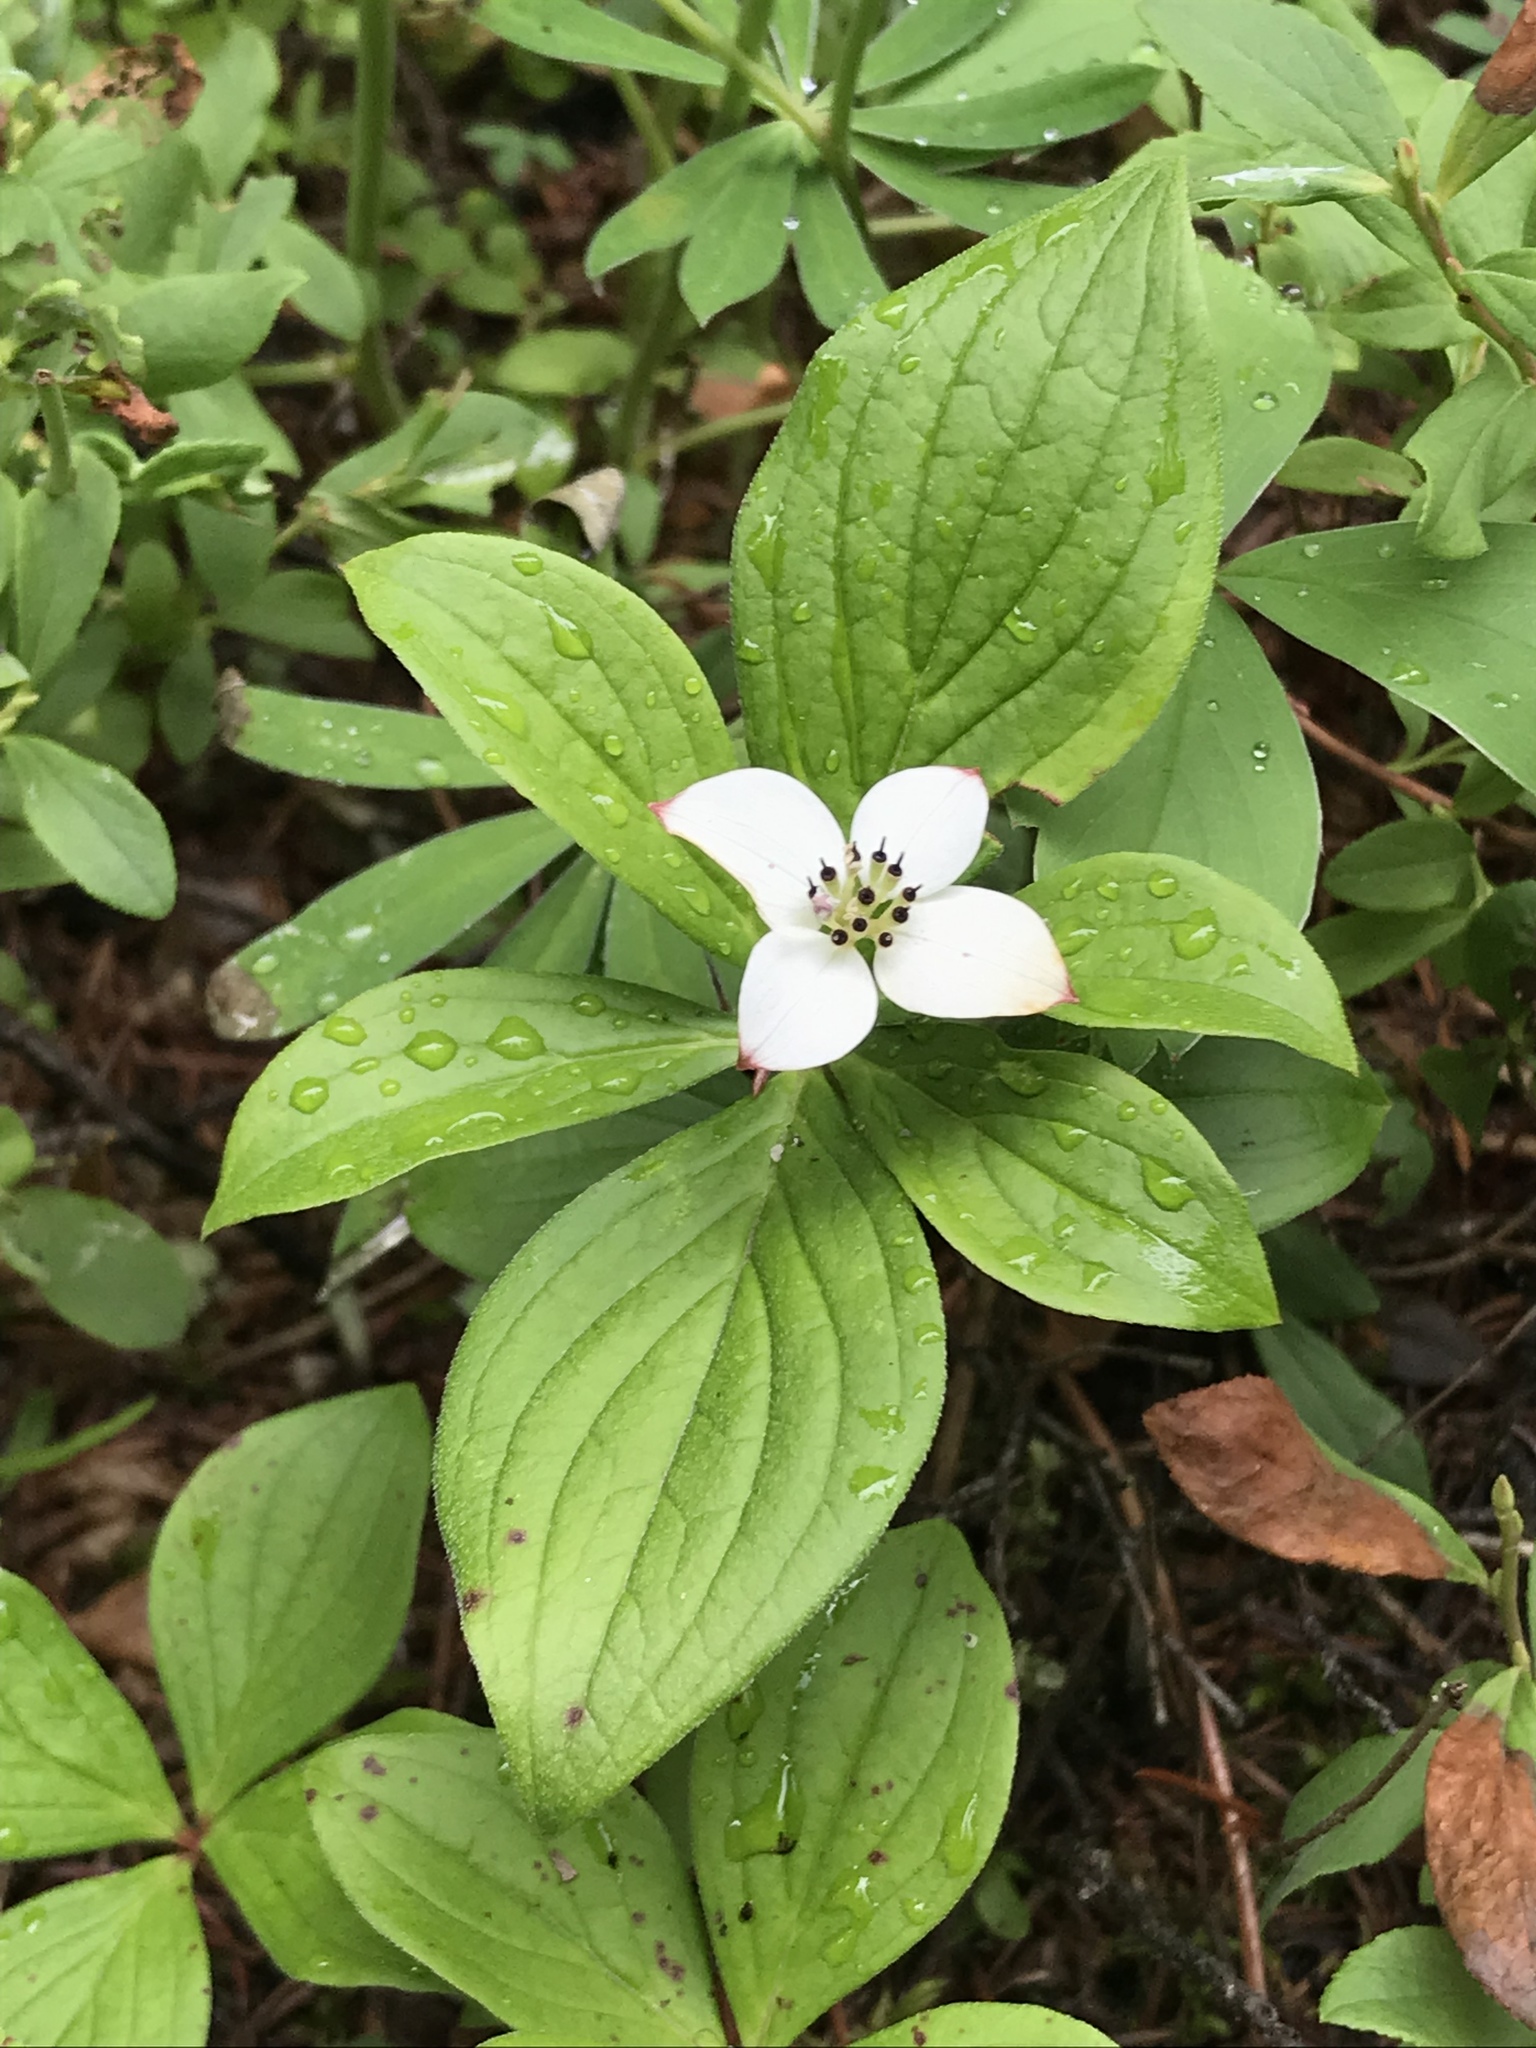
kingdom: Plantae
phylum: Tracheophyta
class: Magnoliopsida
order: Cornales
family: Cornaceae
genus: Cornus
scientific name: Cornus canadensis
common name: Creeping dogwood
